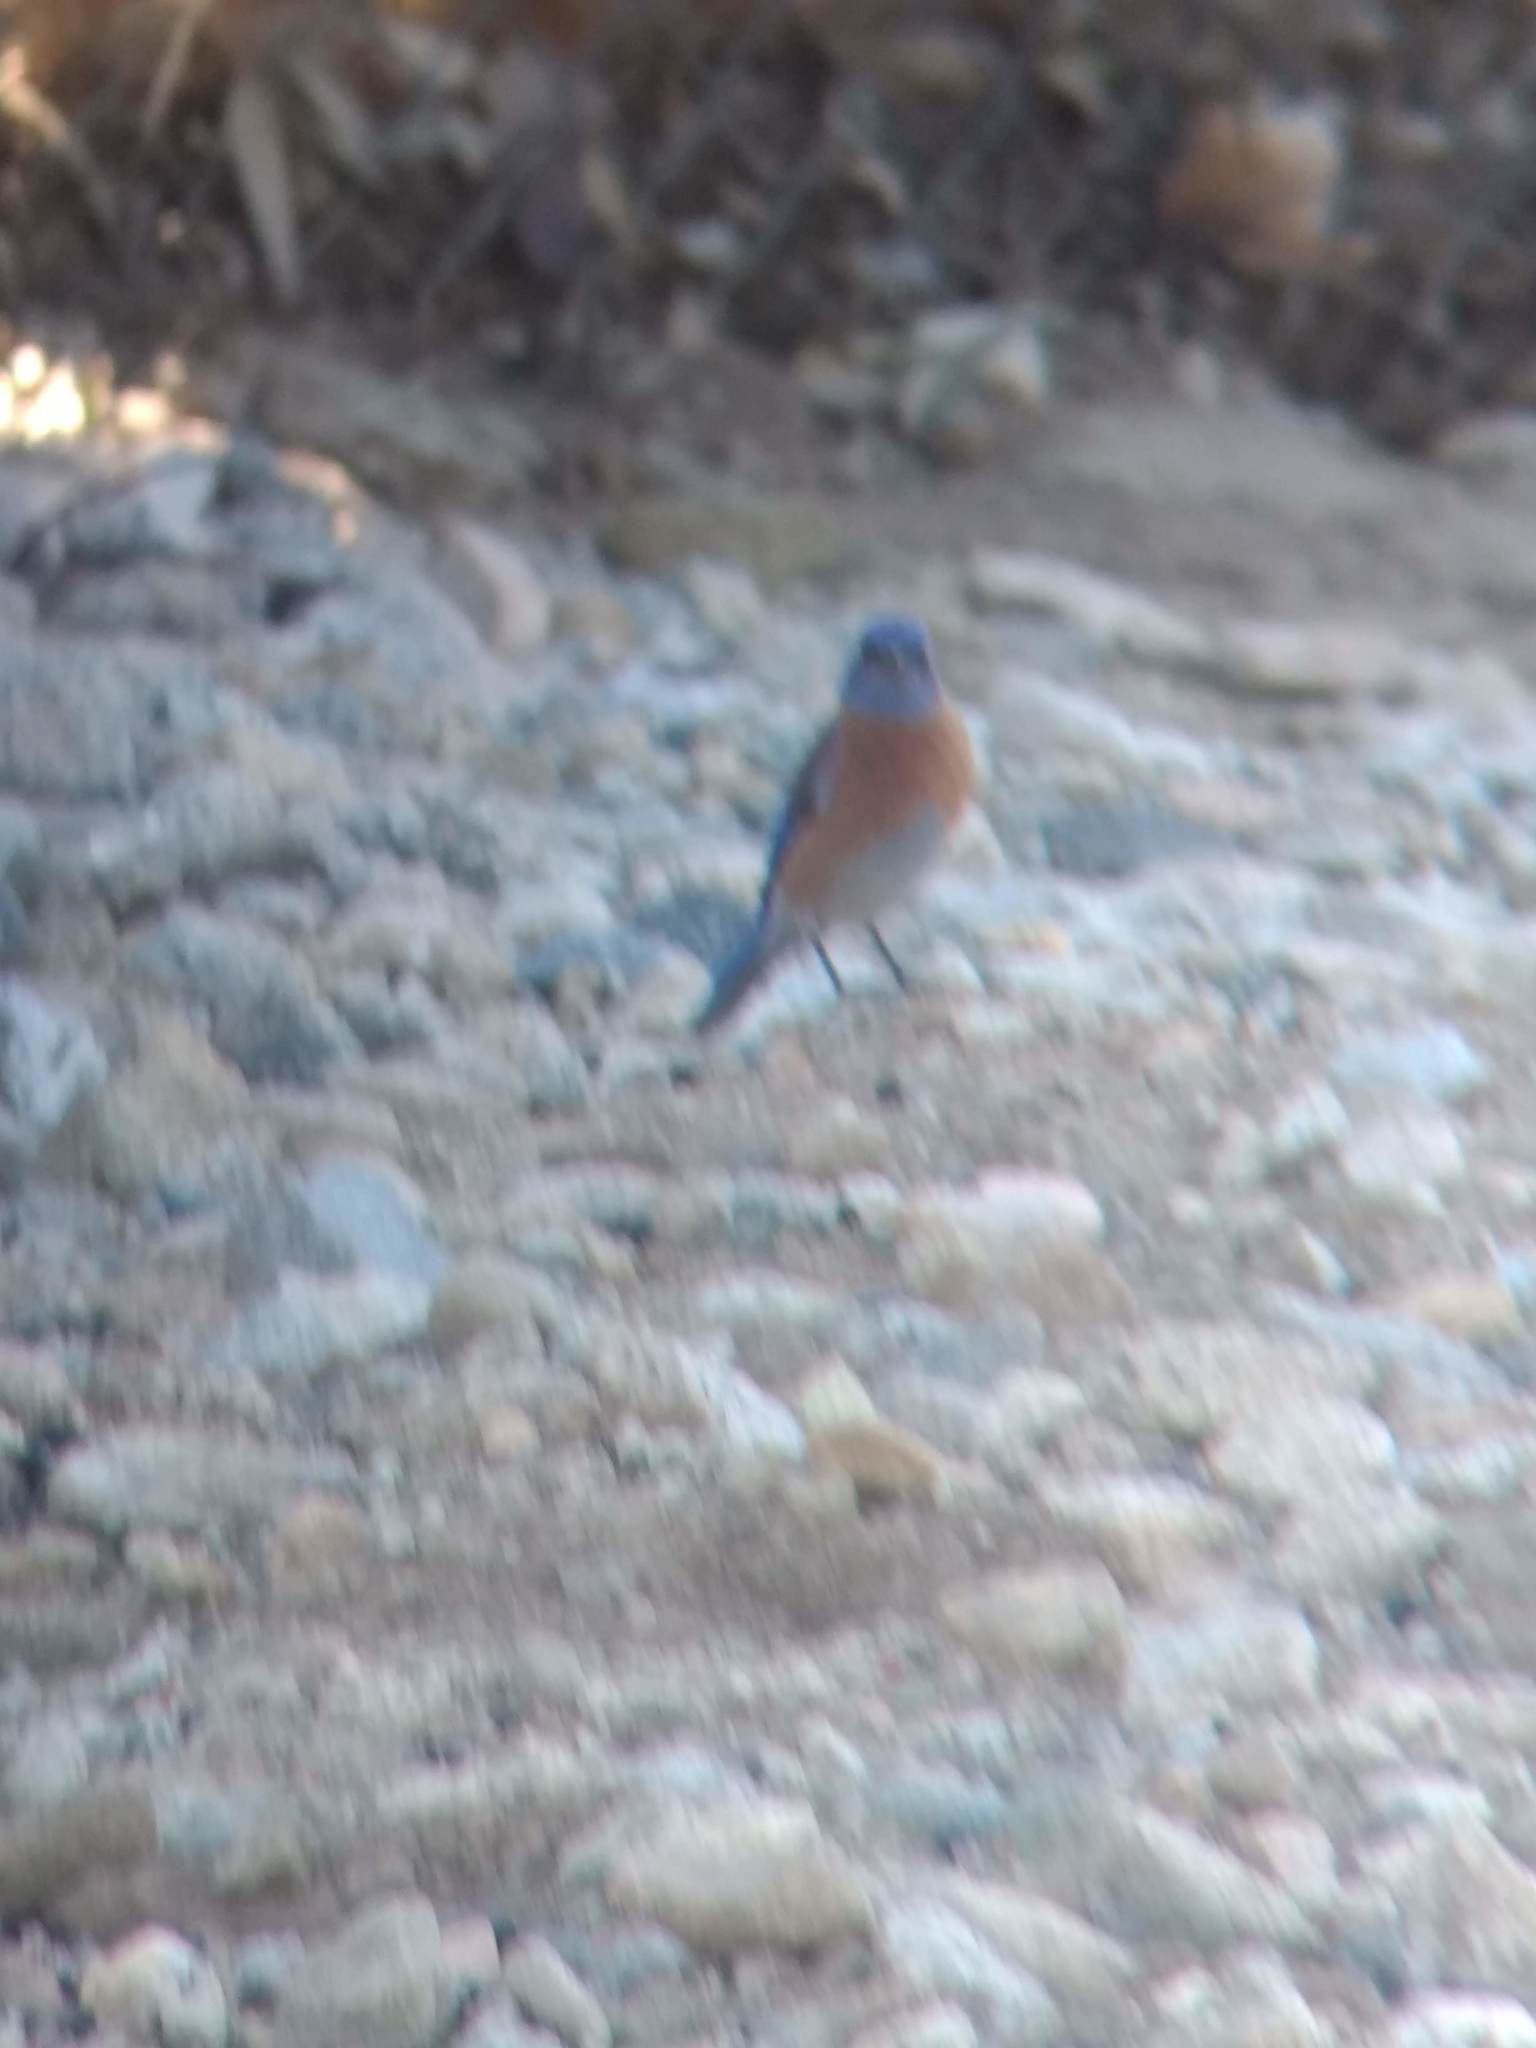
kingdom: Animalia
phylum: Chordata
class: Aves
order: Passeriformes
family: Turdidae
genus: Sialia
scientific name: Sialia mexicana
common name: Western bluebird
